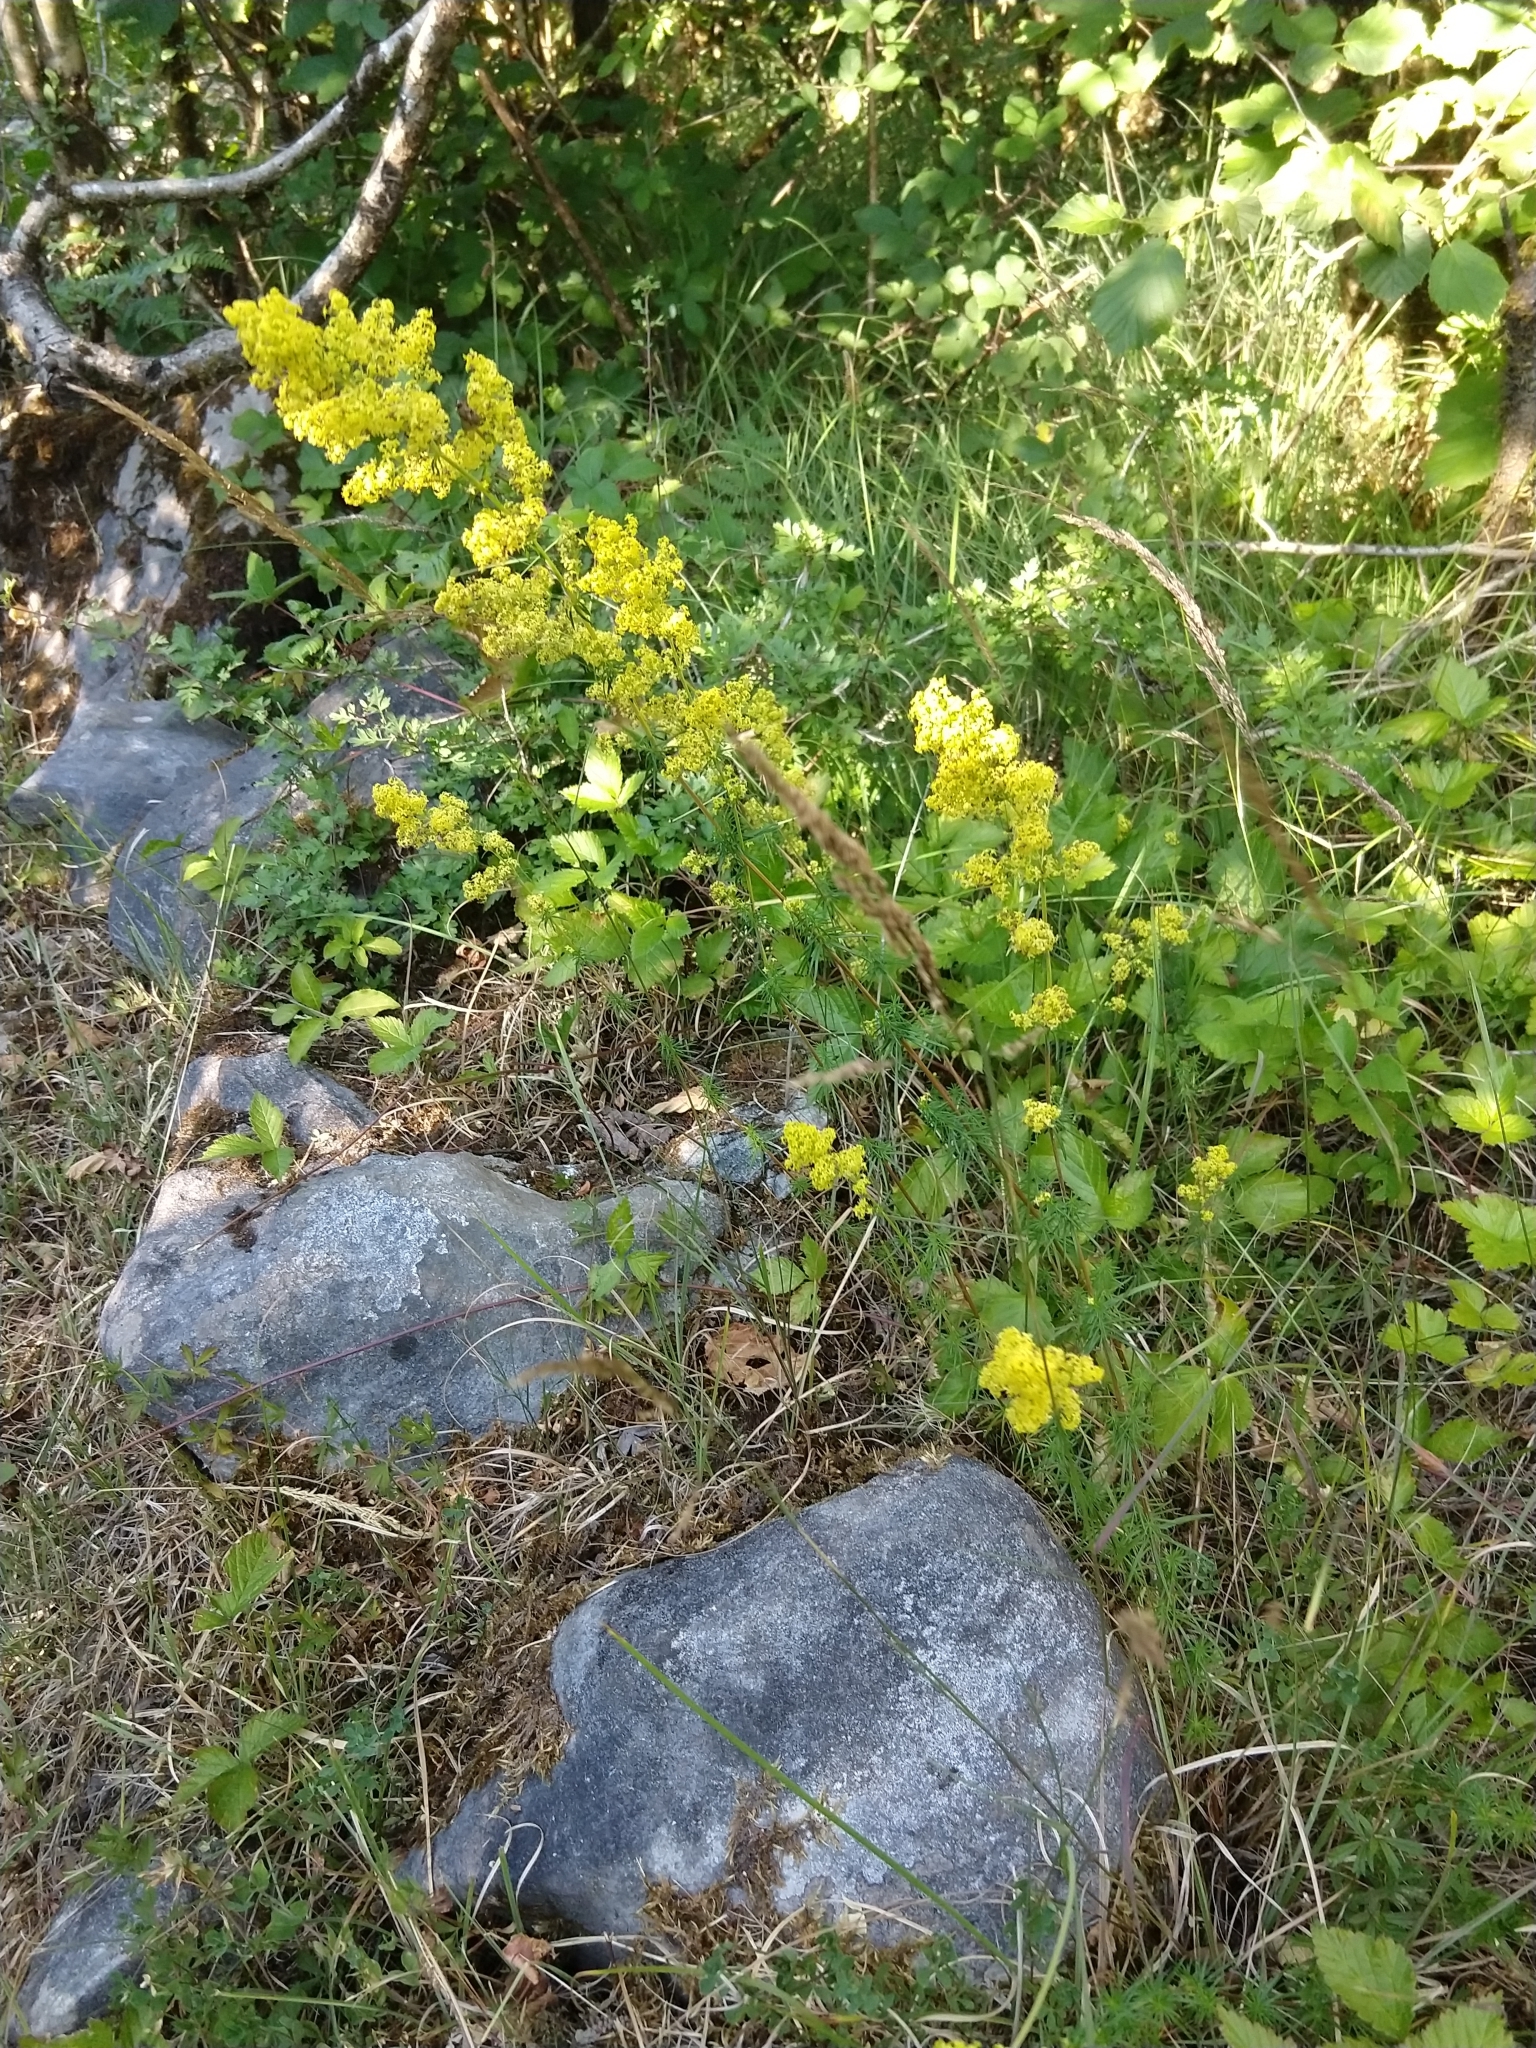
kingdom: Plantae
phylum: Tracheophyta
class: Magnoliopsida
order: Gentianales
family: Rubiaceae
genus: Galium
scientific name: Galium verum
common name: Lady's bedstraw
